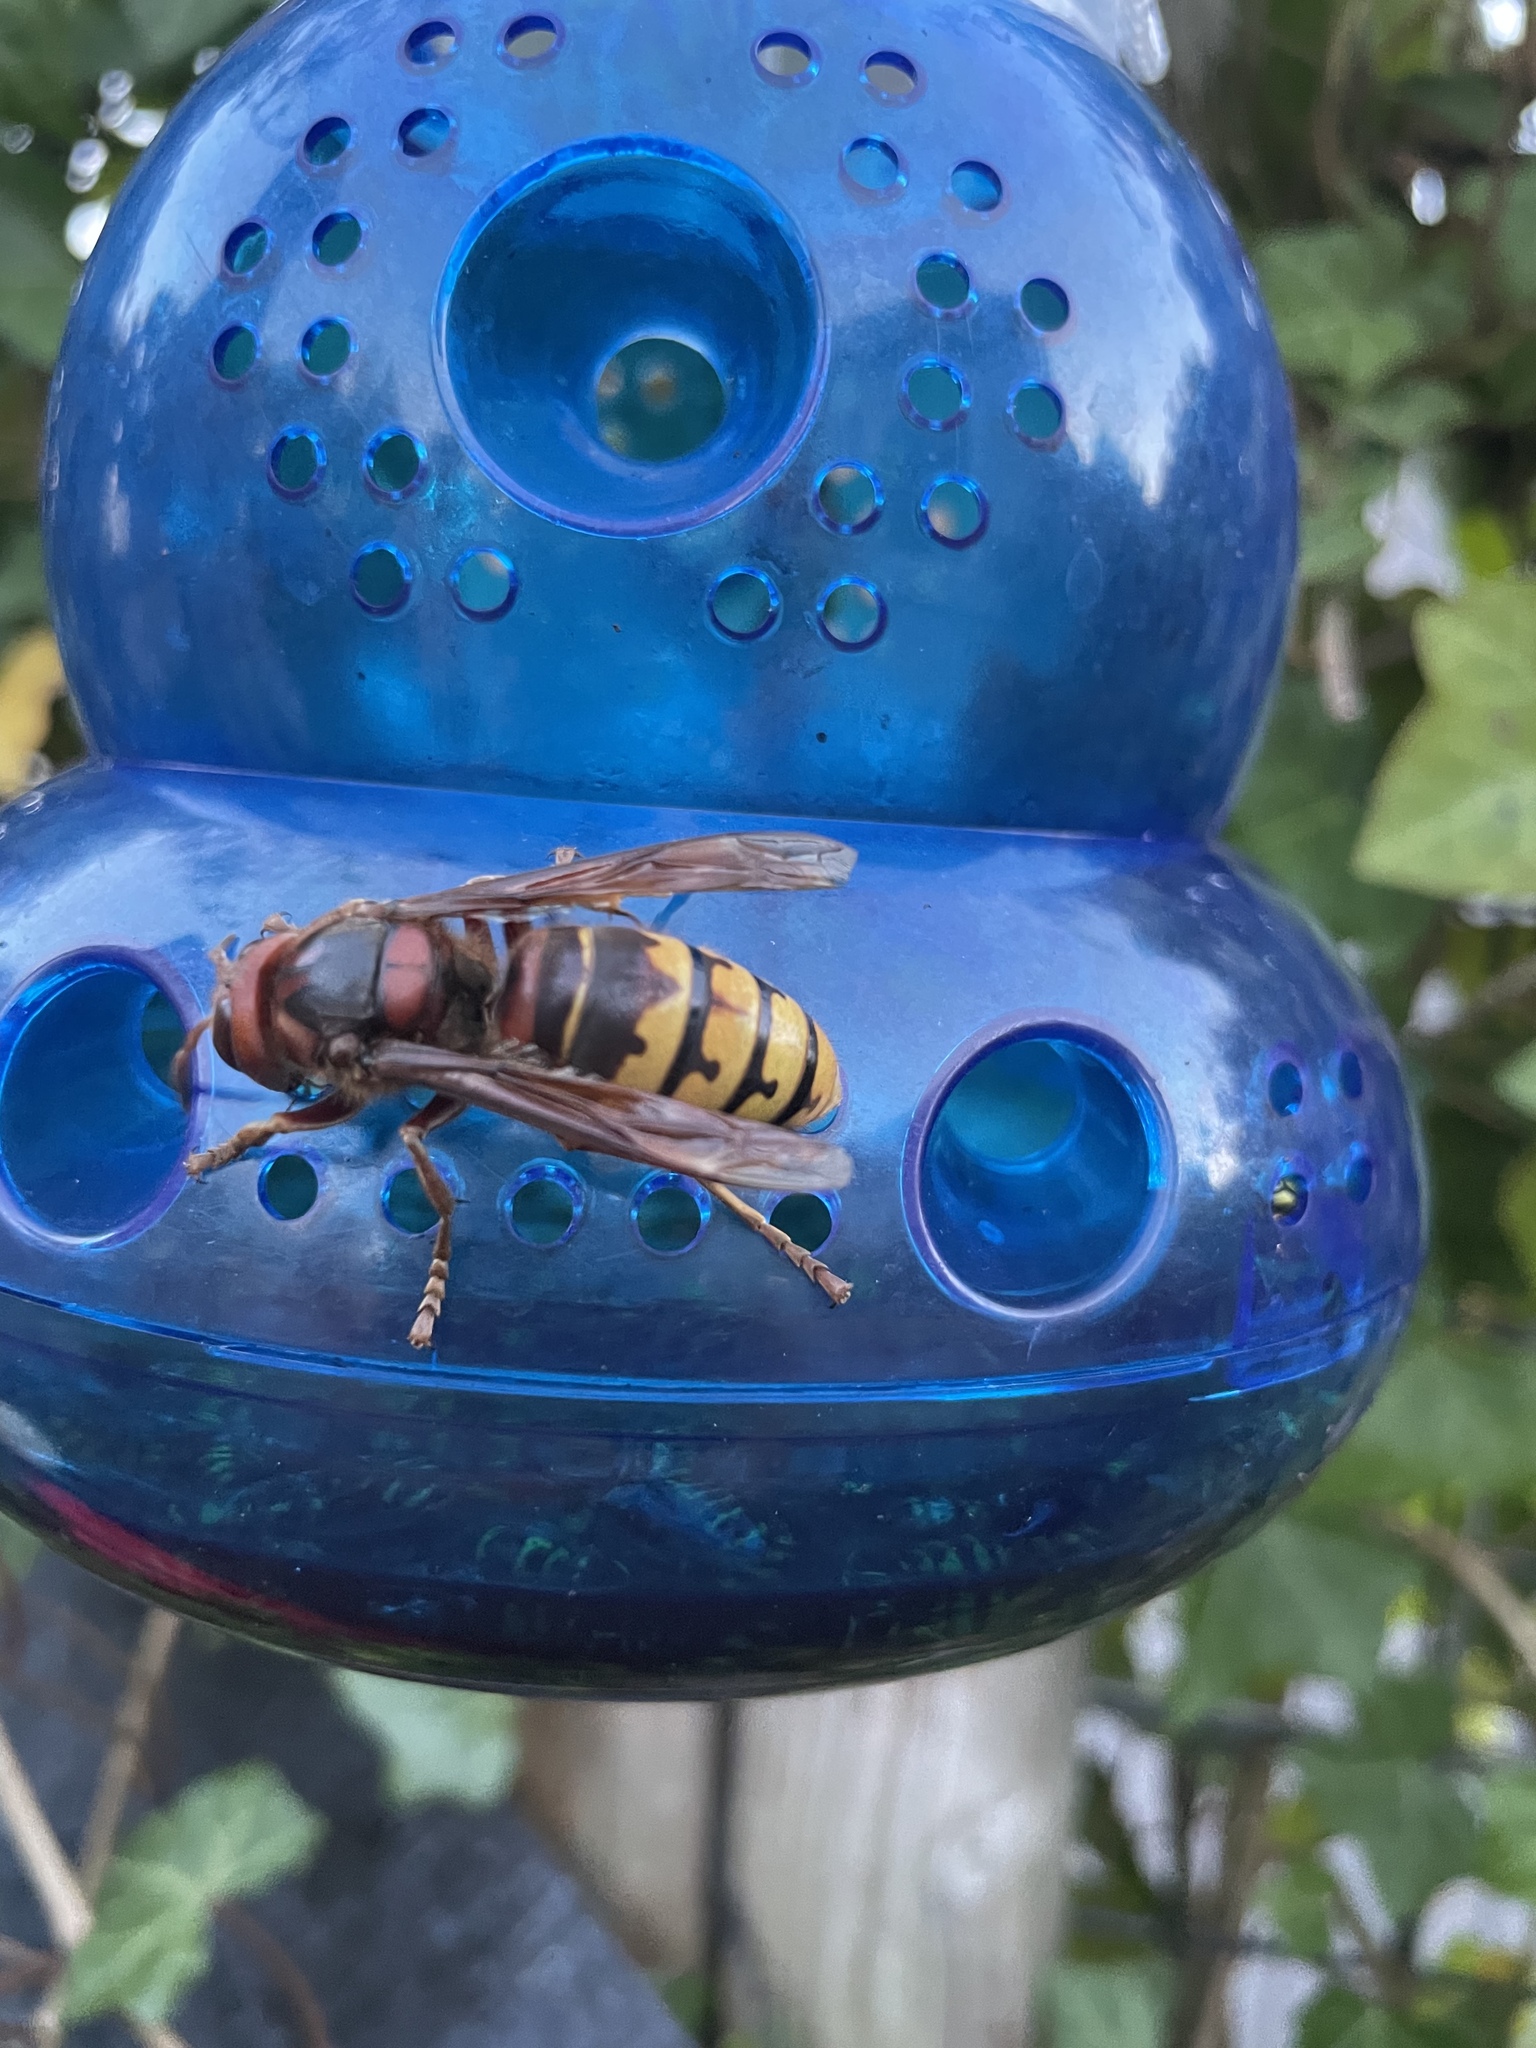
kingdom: Animalia
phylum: Arthropoda
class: Insecta
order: Hymenoptera
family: Vespidae
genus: Vespa
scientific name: Vespa crabro
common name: Hornet
